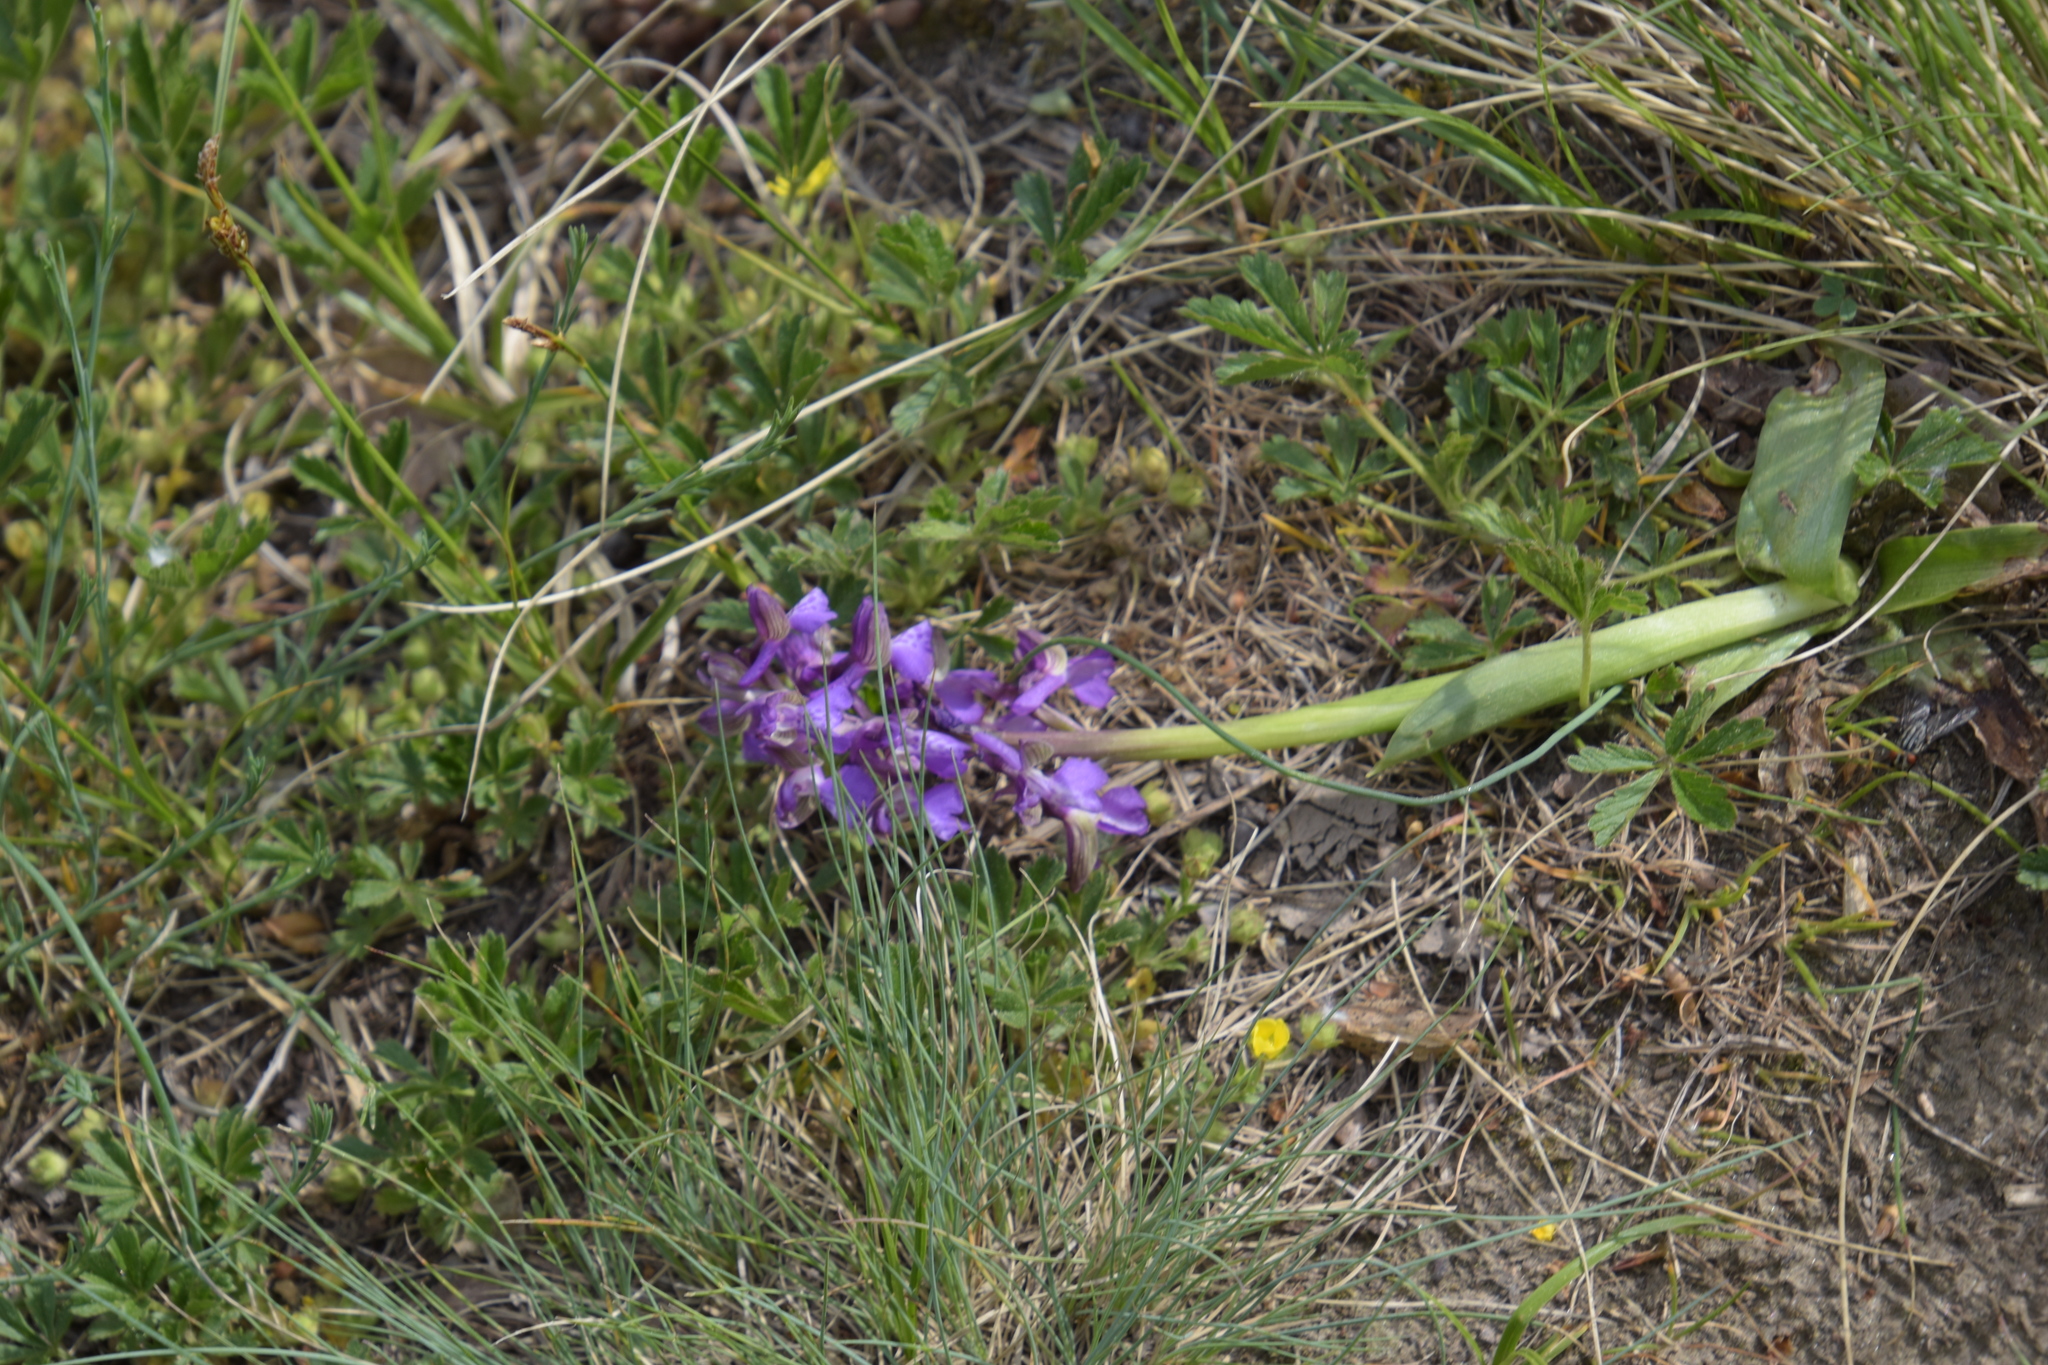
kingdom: Plantae
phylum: Tracheophyta
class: Liliopsida
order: Asparagales
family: Orchidaceae
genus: Anacamptis
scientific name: Anacamptis morio
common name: Green-winged orchid
